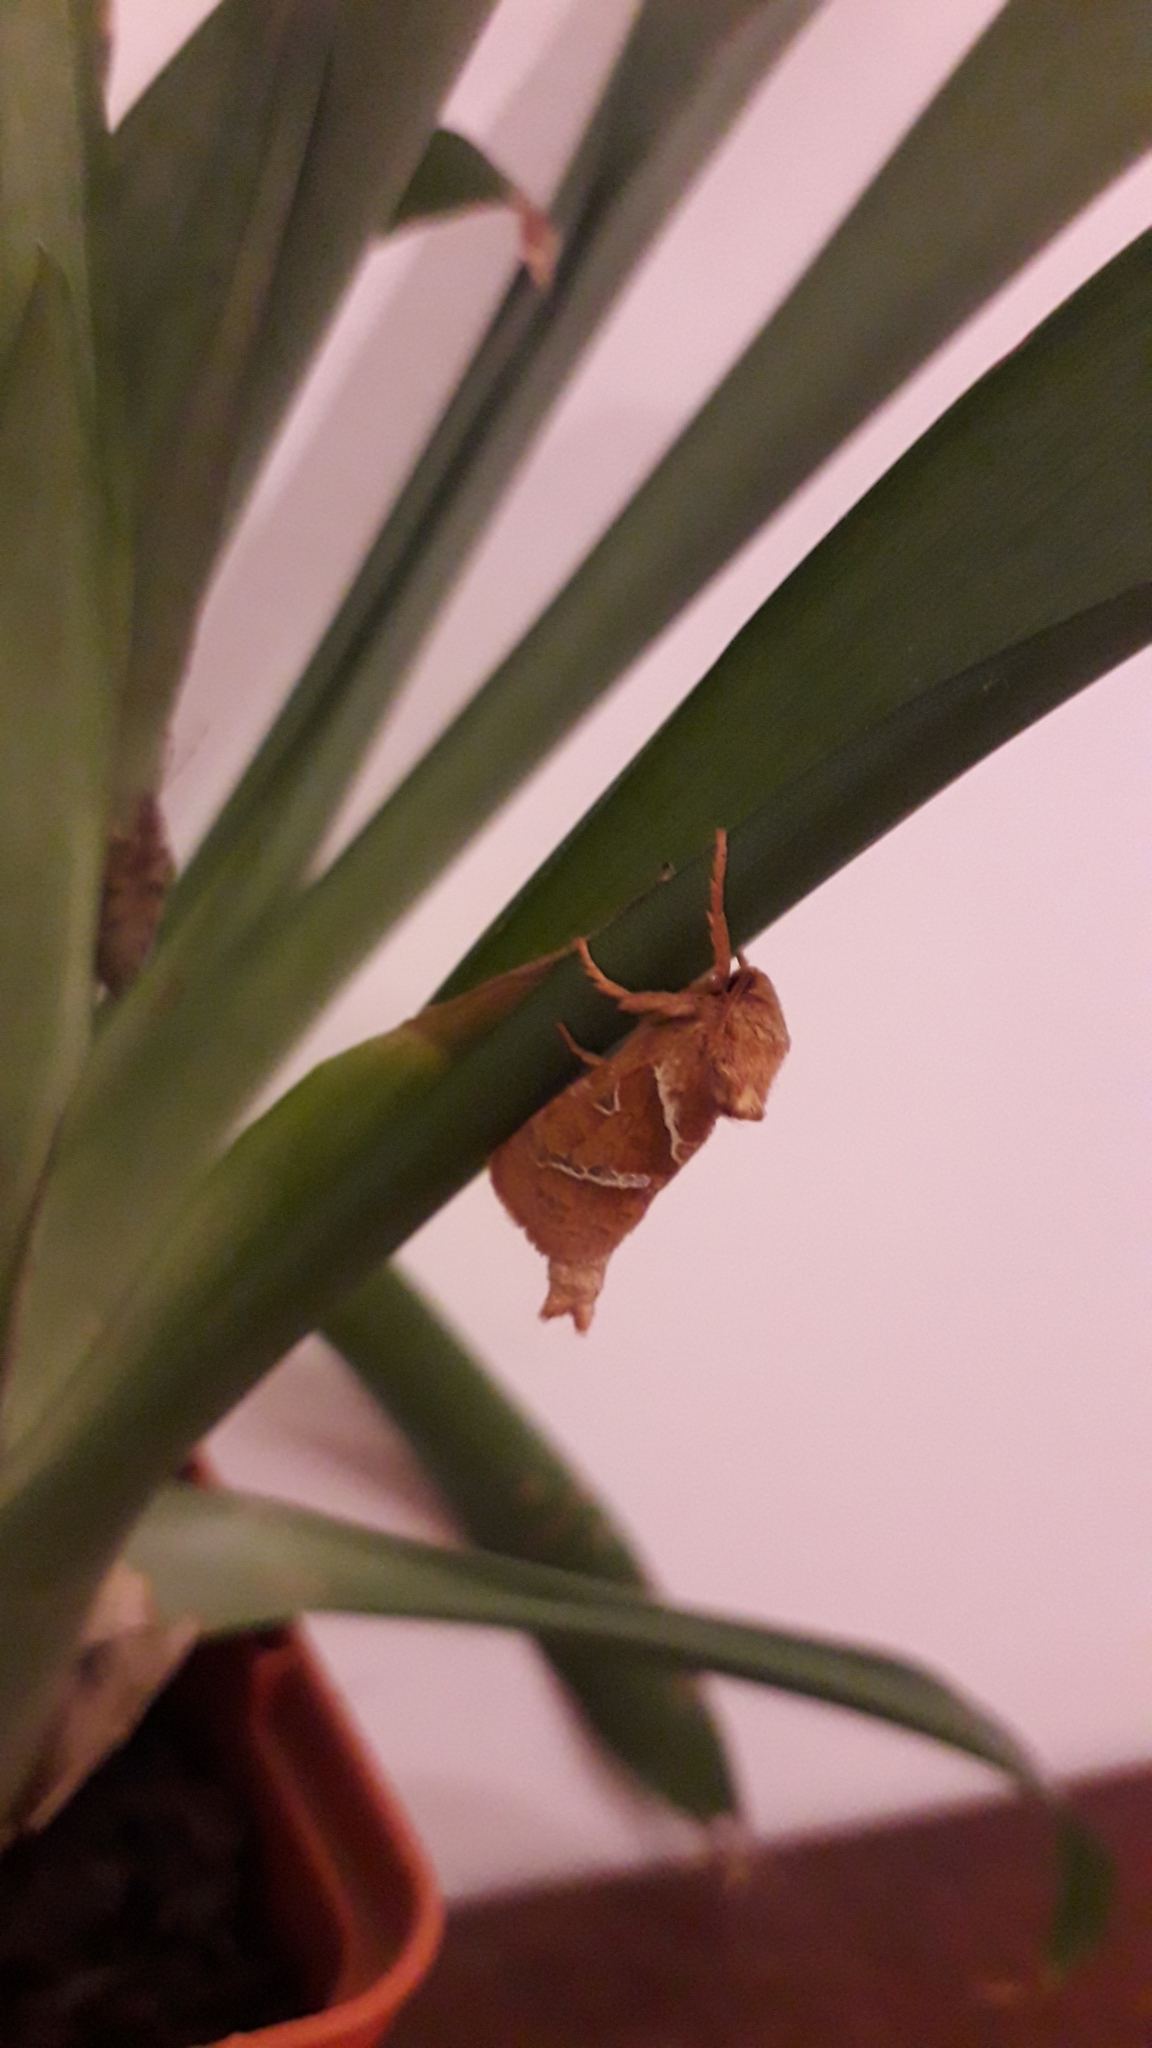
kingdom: Animalia
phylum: Arthropoda
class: Insecta
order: Lepidoptera
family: Hepialidae
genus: Triodia
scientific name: Triodia sylvina
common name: Orange swift
